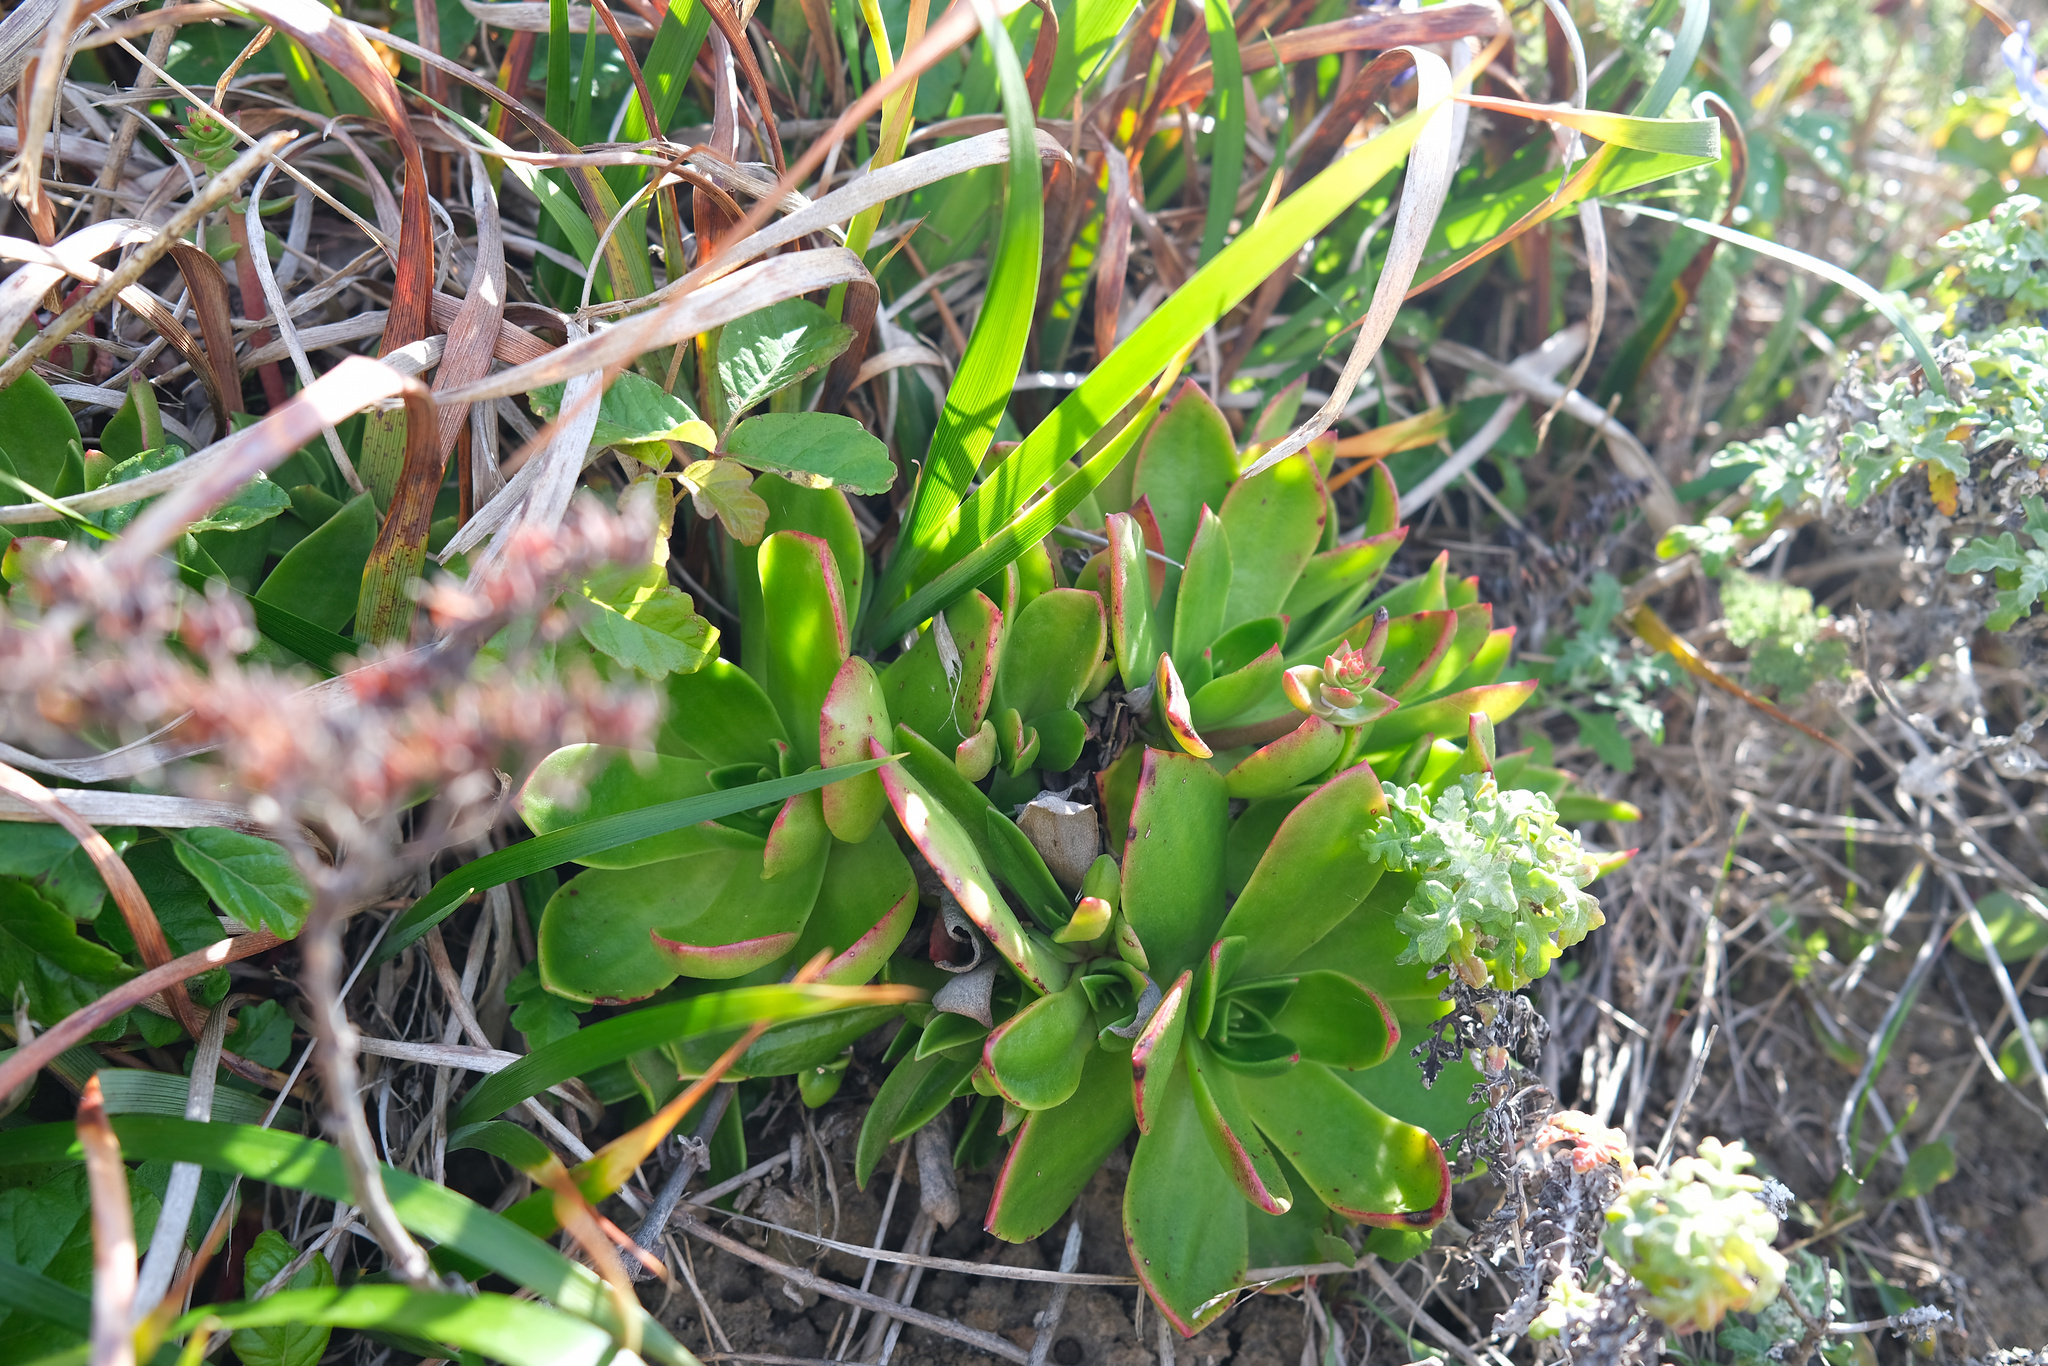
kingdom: Plantae
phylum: Tracheophyta
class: Magnoliopsida
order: Saxifragales
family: Crassulaceae
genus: Dudleya
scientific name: Dudleya palmeri
